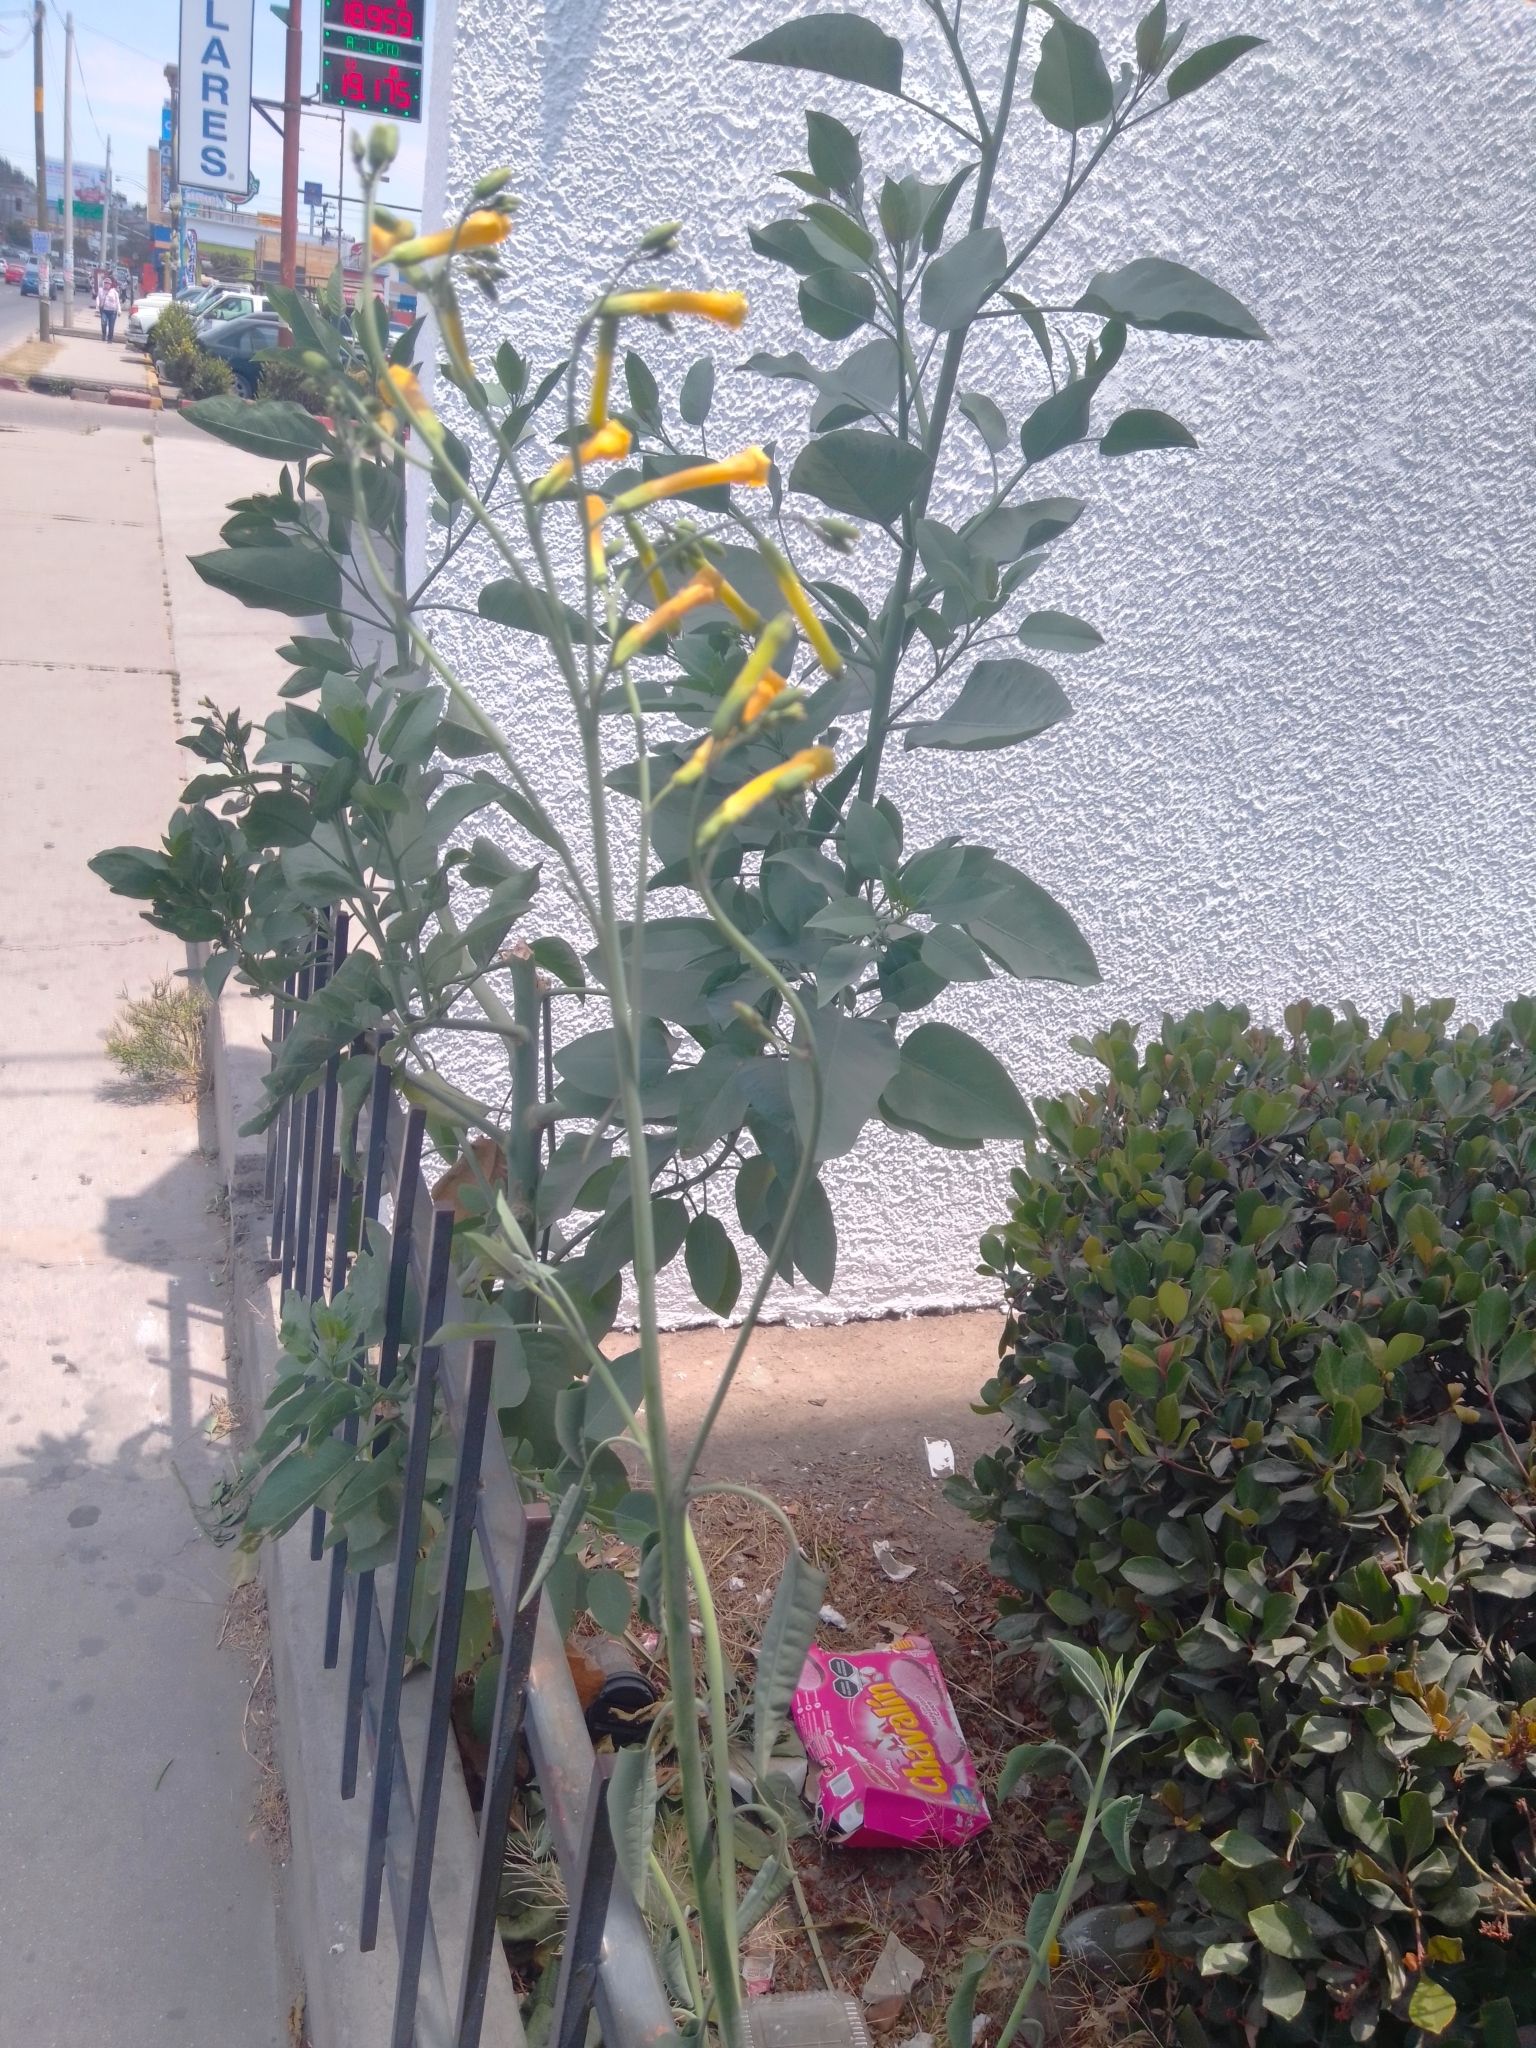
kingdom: Plantae
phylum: Tracheophyta
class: Magnoliopsida
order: Solanales
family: Solanaceae
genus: Nicotiana
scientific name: Nicotiana glauca
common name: Tree tobacco
